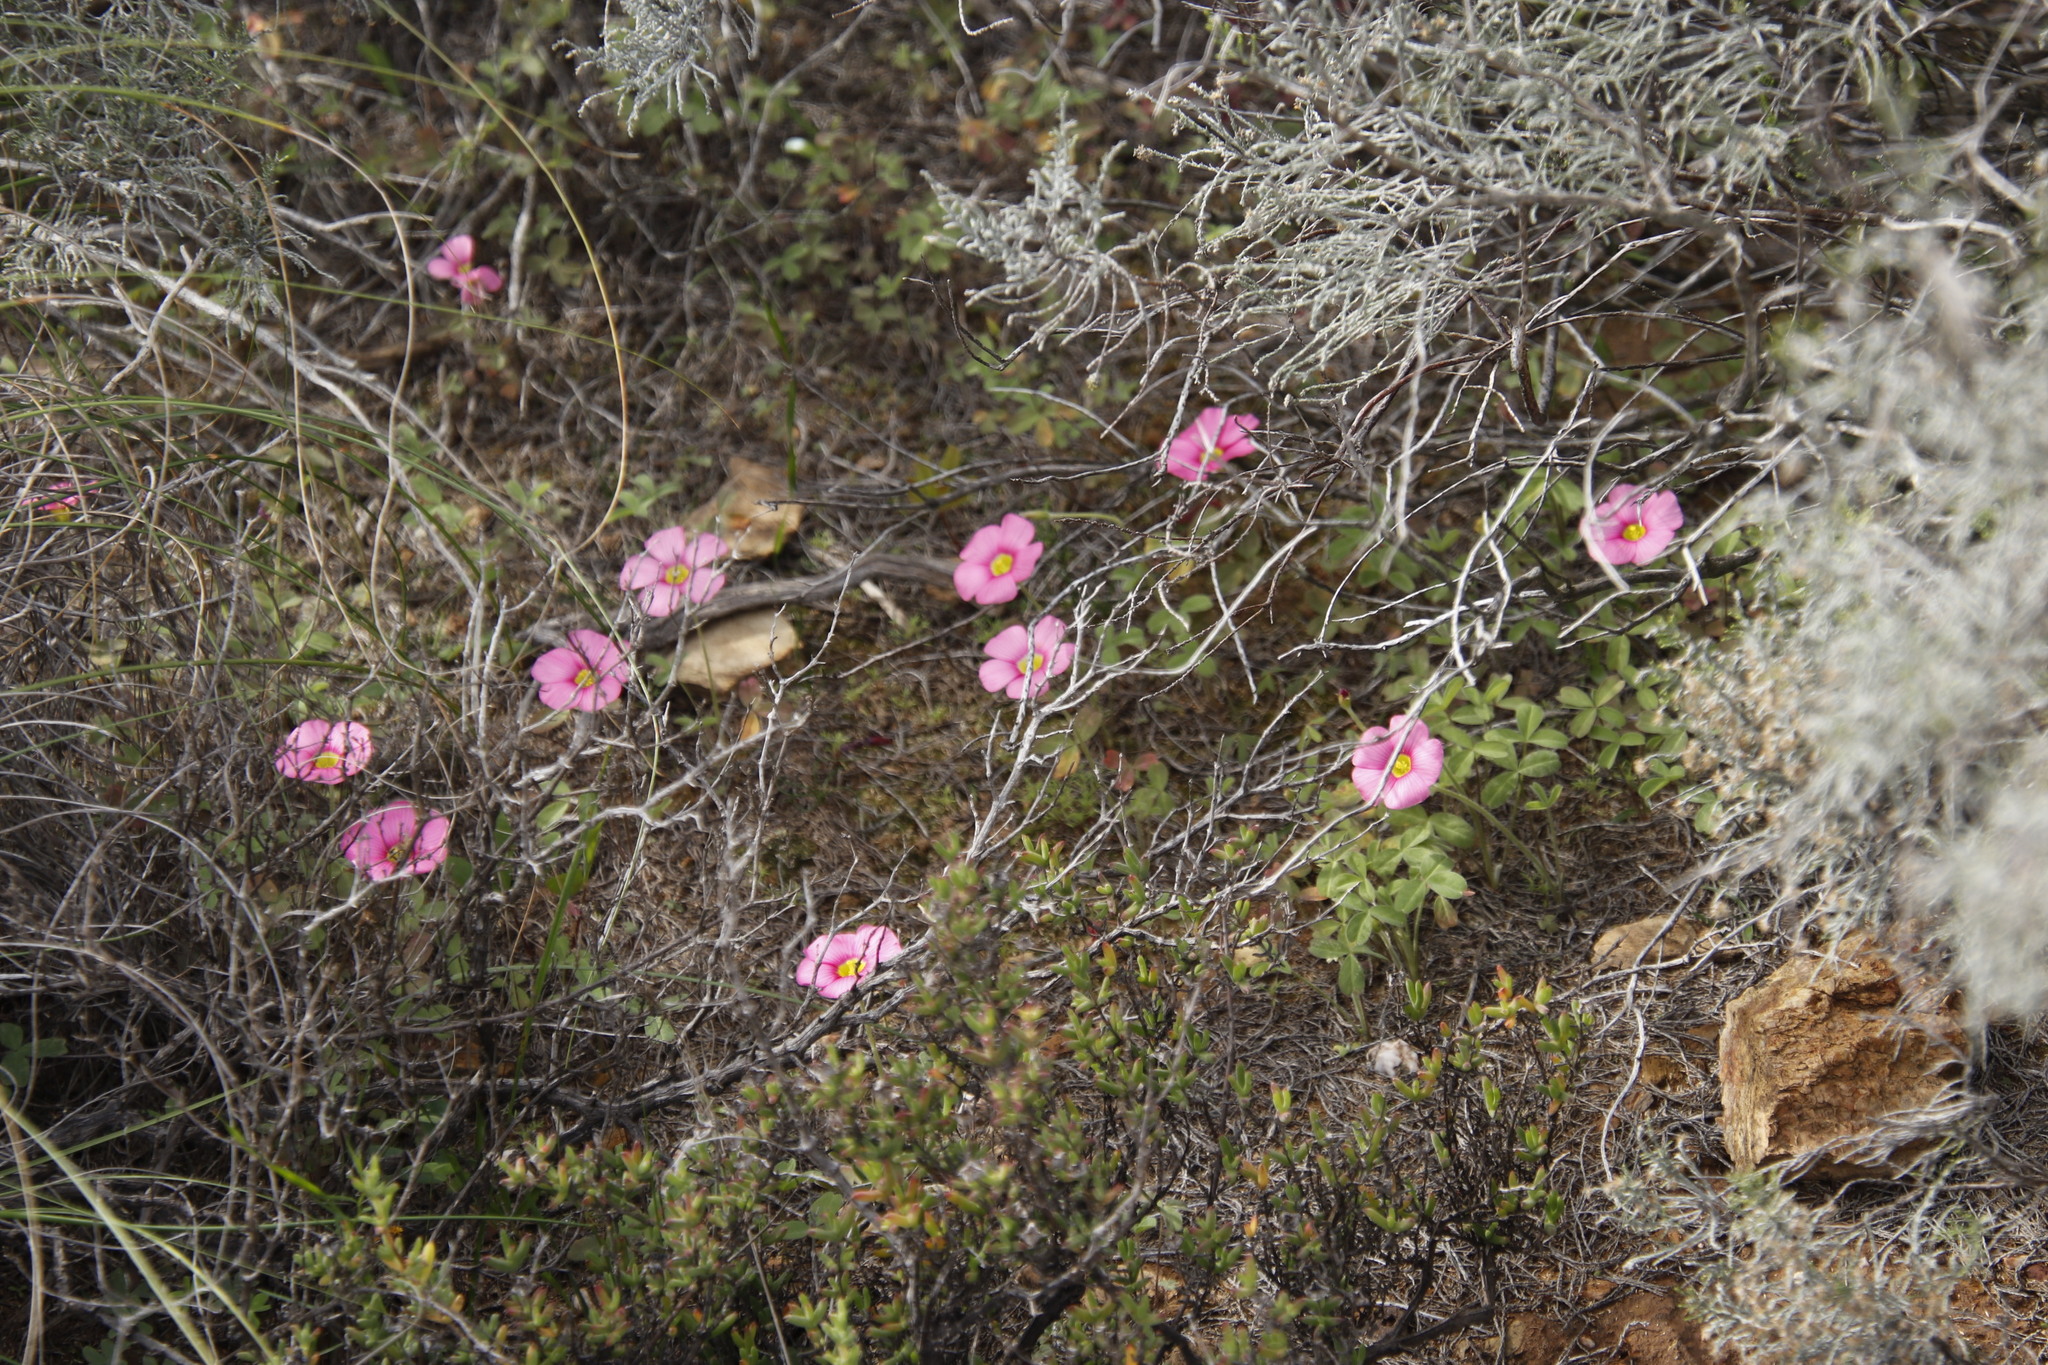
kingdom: Plantae
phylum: Tracheophyta
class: Magnoliopsida
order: Oxalidales
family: Oxalidaceae
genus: Oxalis
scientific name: Oxalis obtusa
